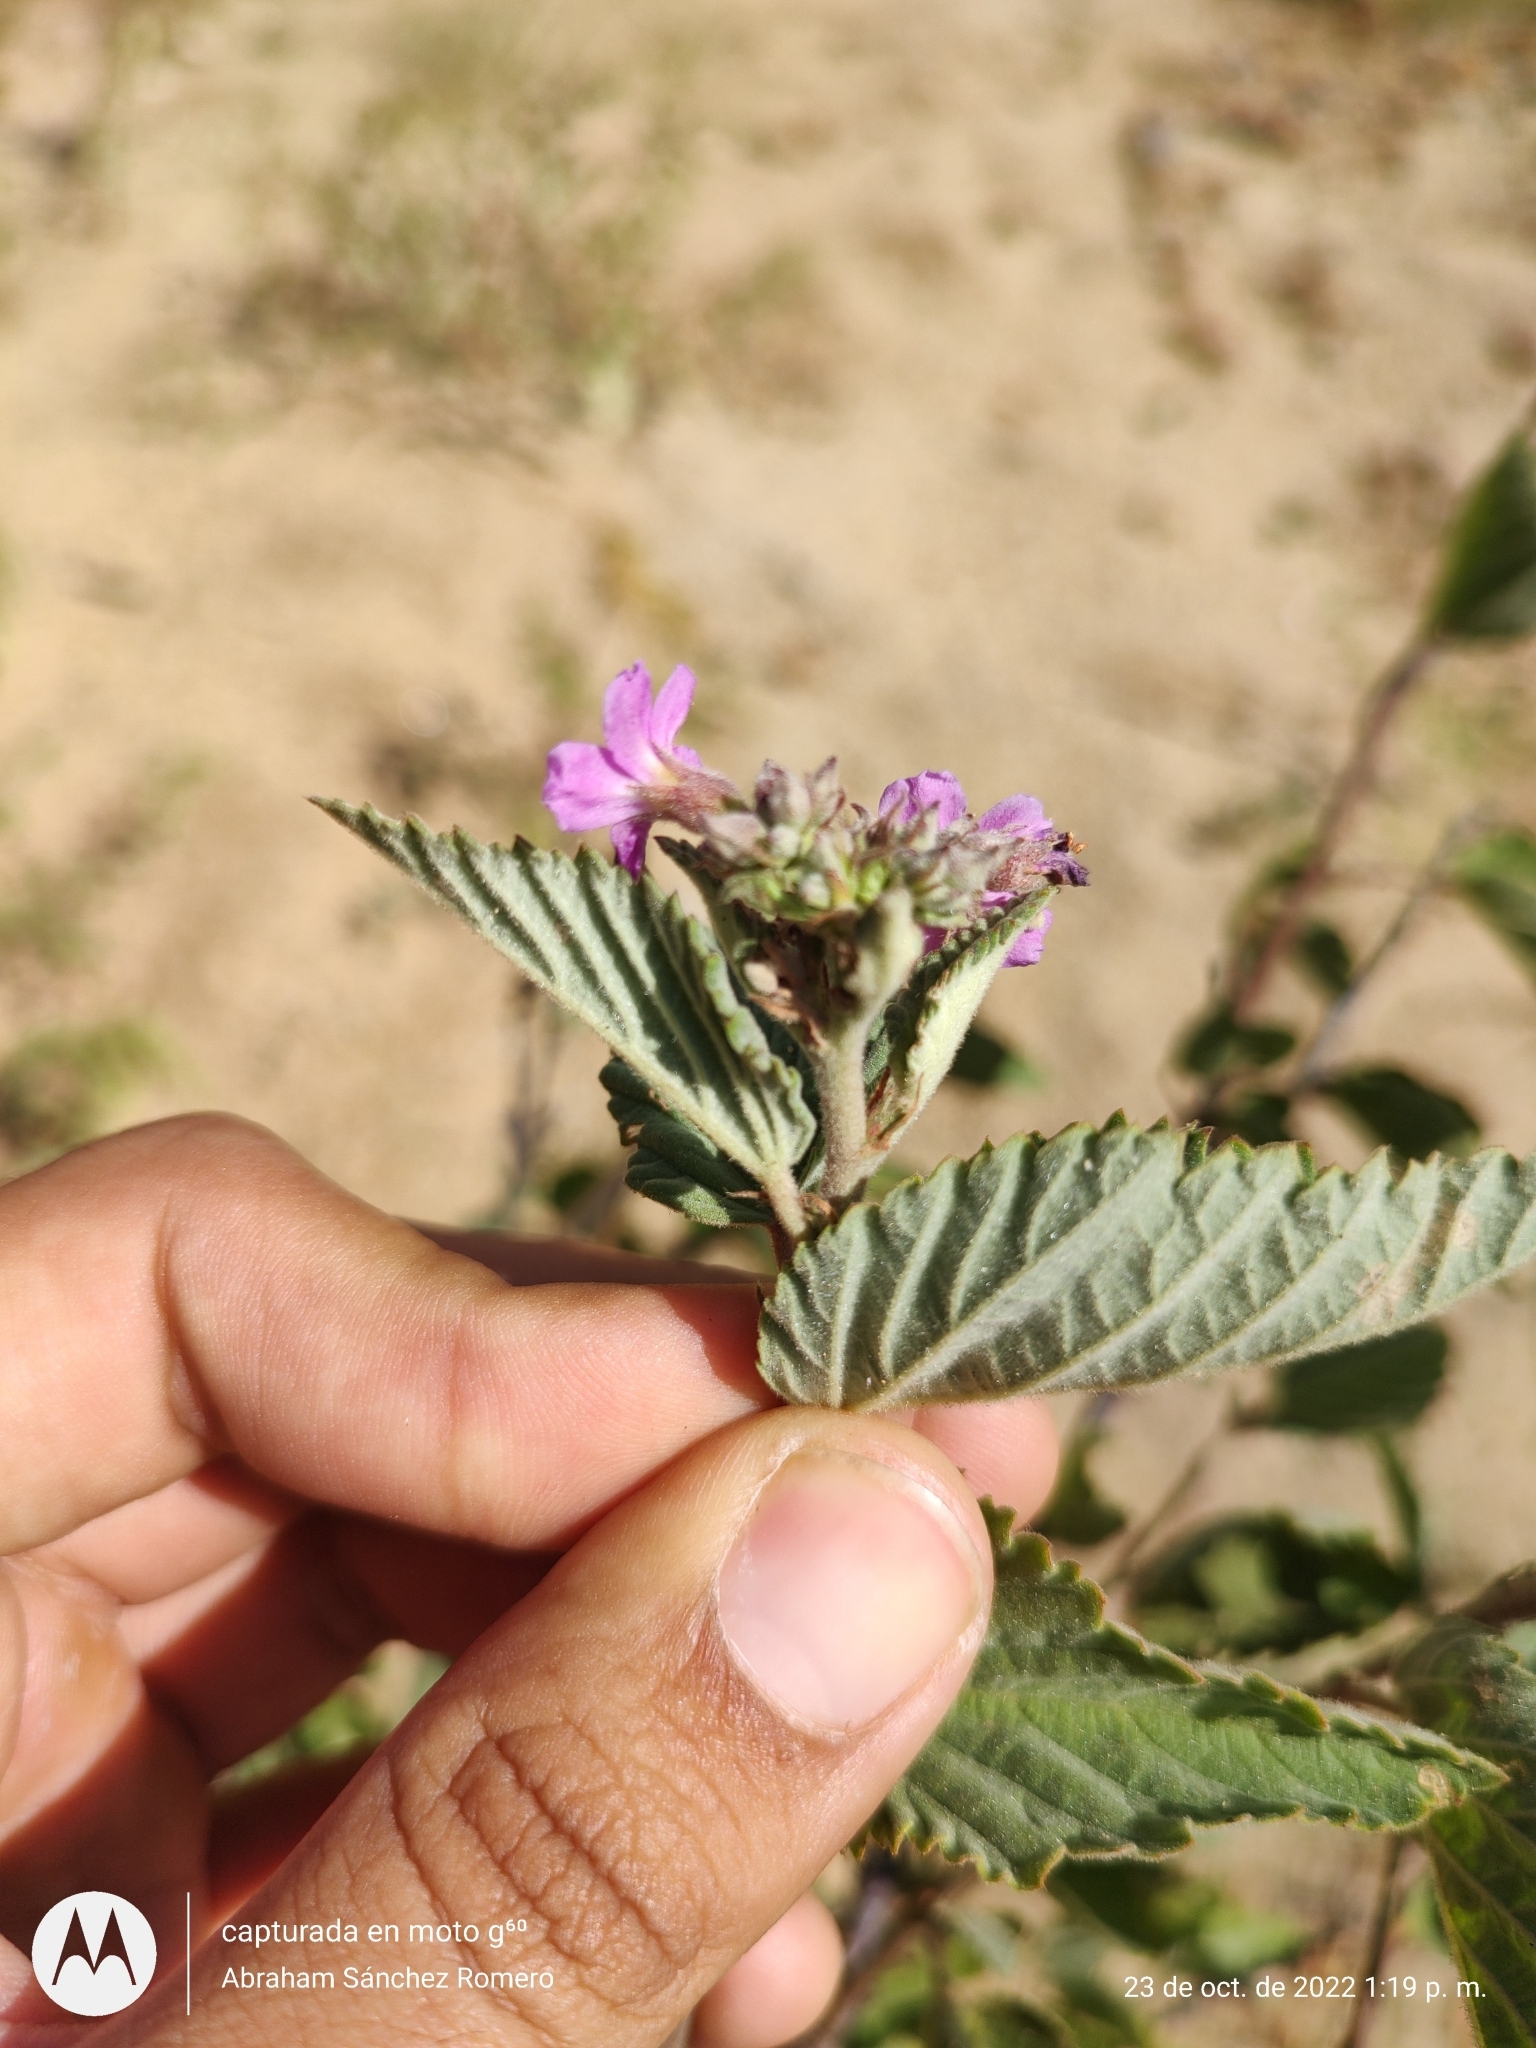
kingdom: Plantae
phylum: Tracheophyta
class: Magnoliopsida
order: Malvales
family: Malvaceae
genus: Melochia
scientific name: Melochia tomentosa
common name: Black torch
